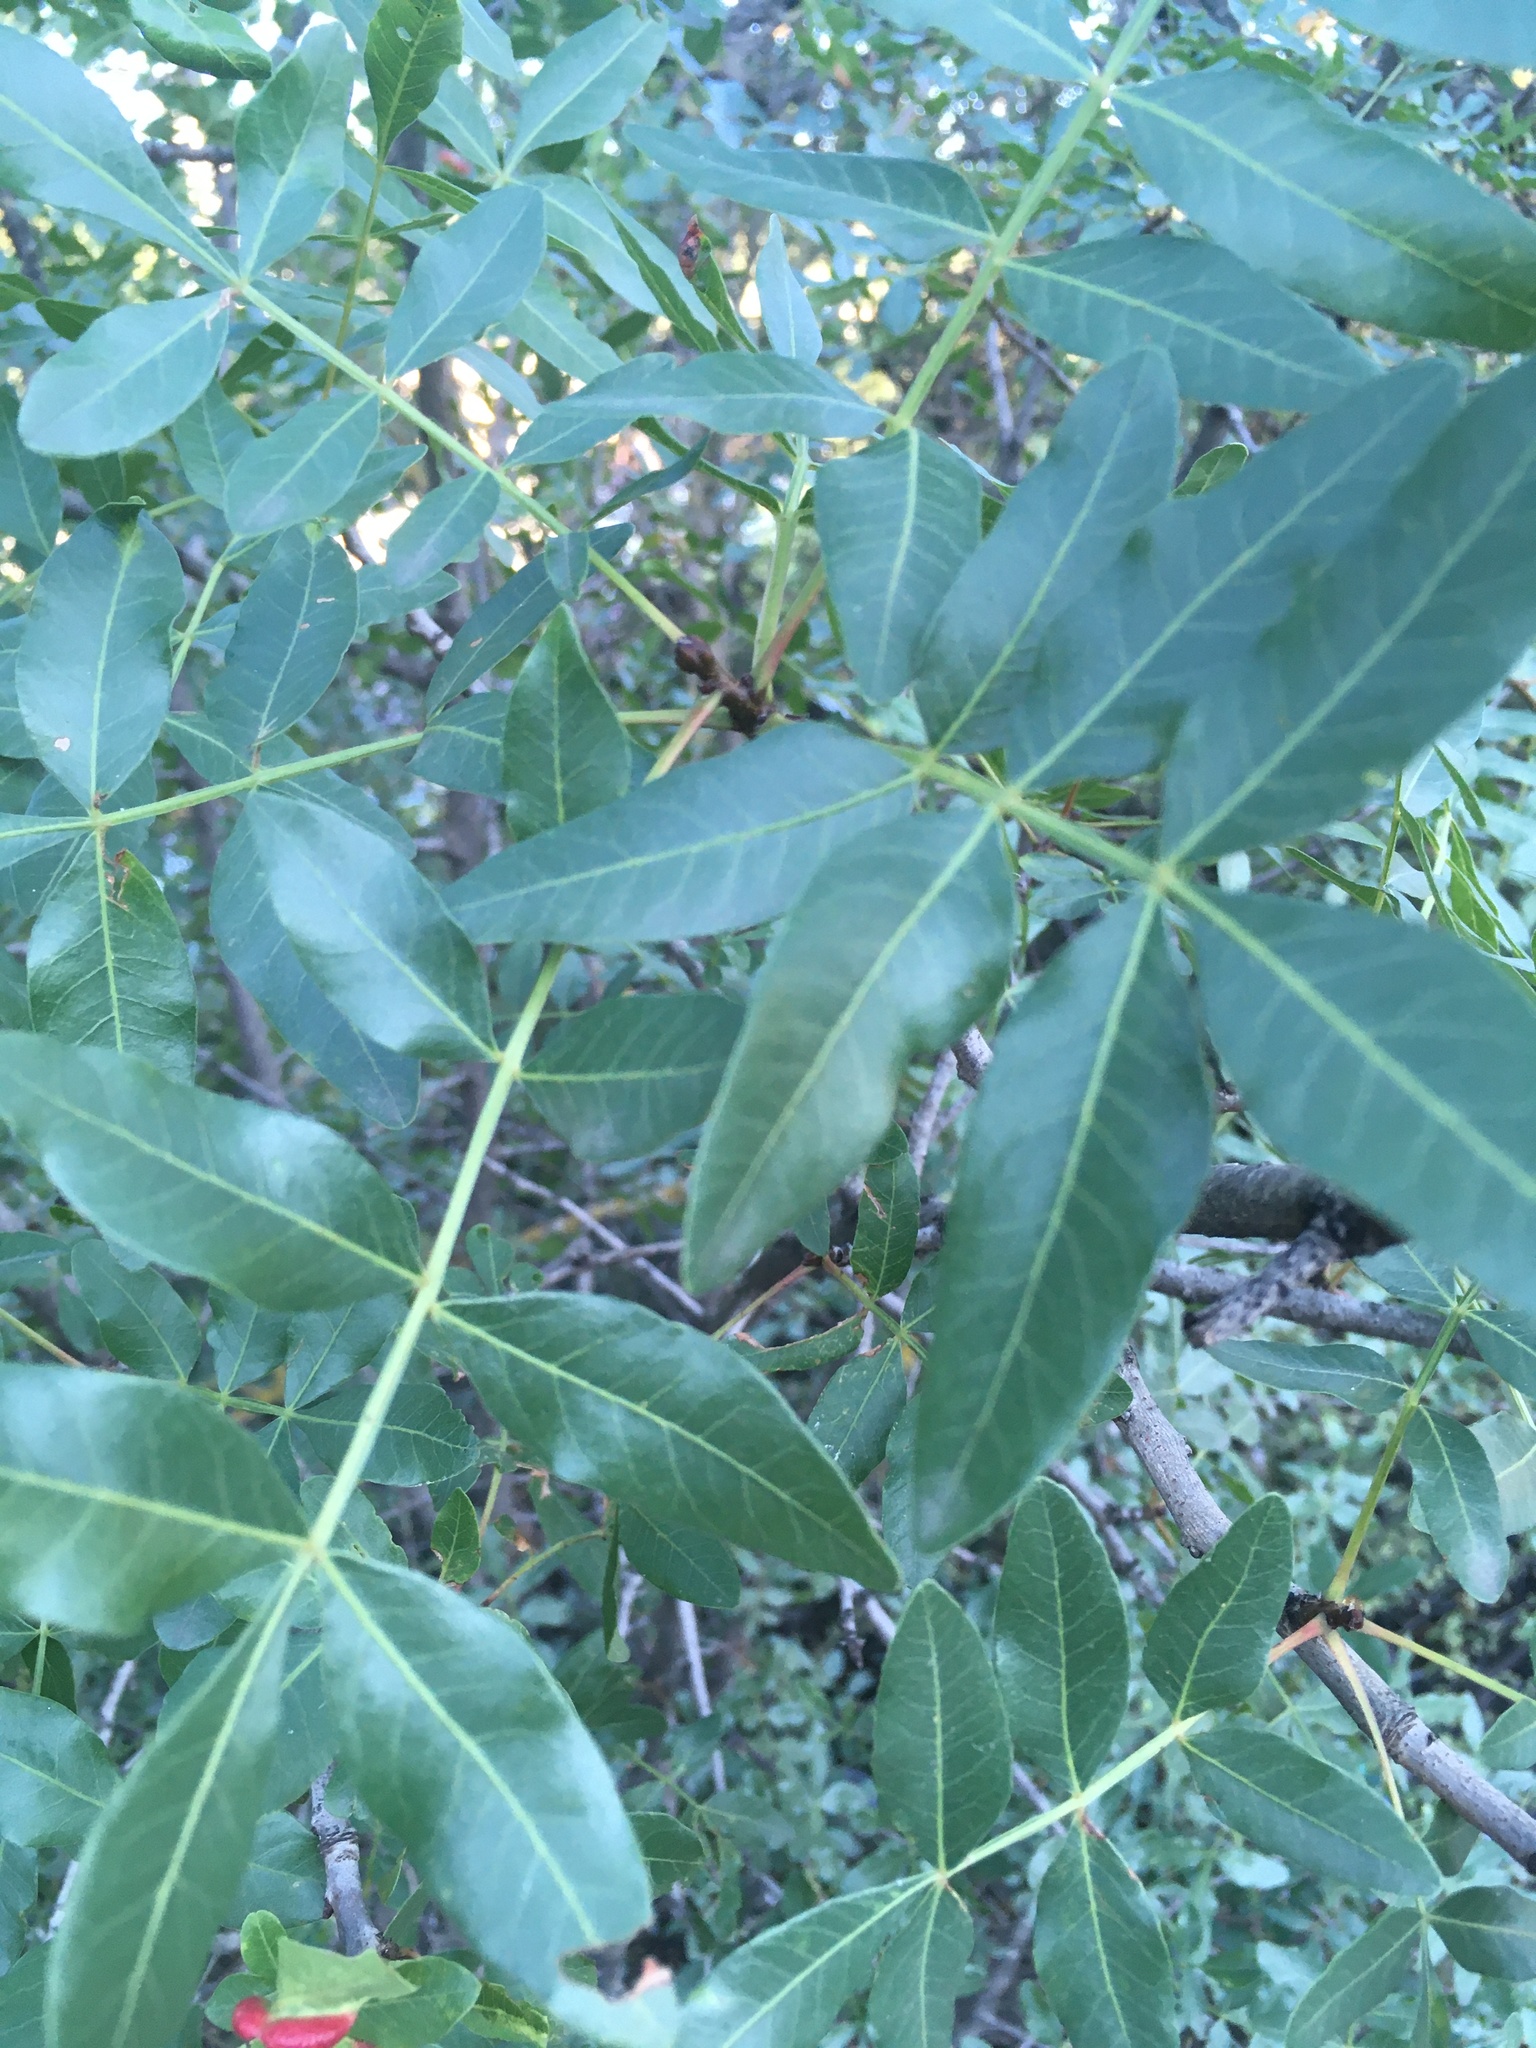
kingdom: Plantae
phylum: Tracheophyta
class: Magnoliopsida
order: Sapindales
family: Anacardiaceae
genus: Pistacia
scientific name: Pistacia atlantica
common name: Mt. atlas mastic tree
